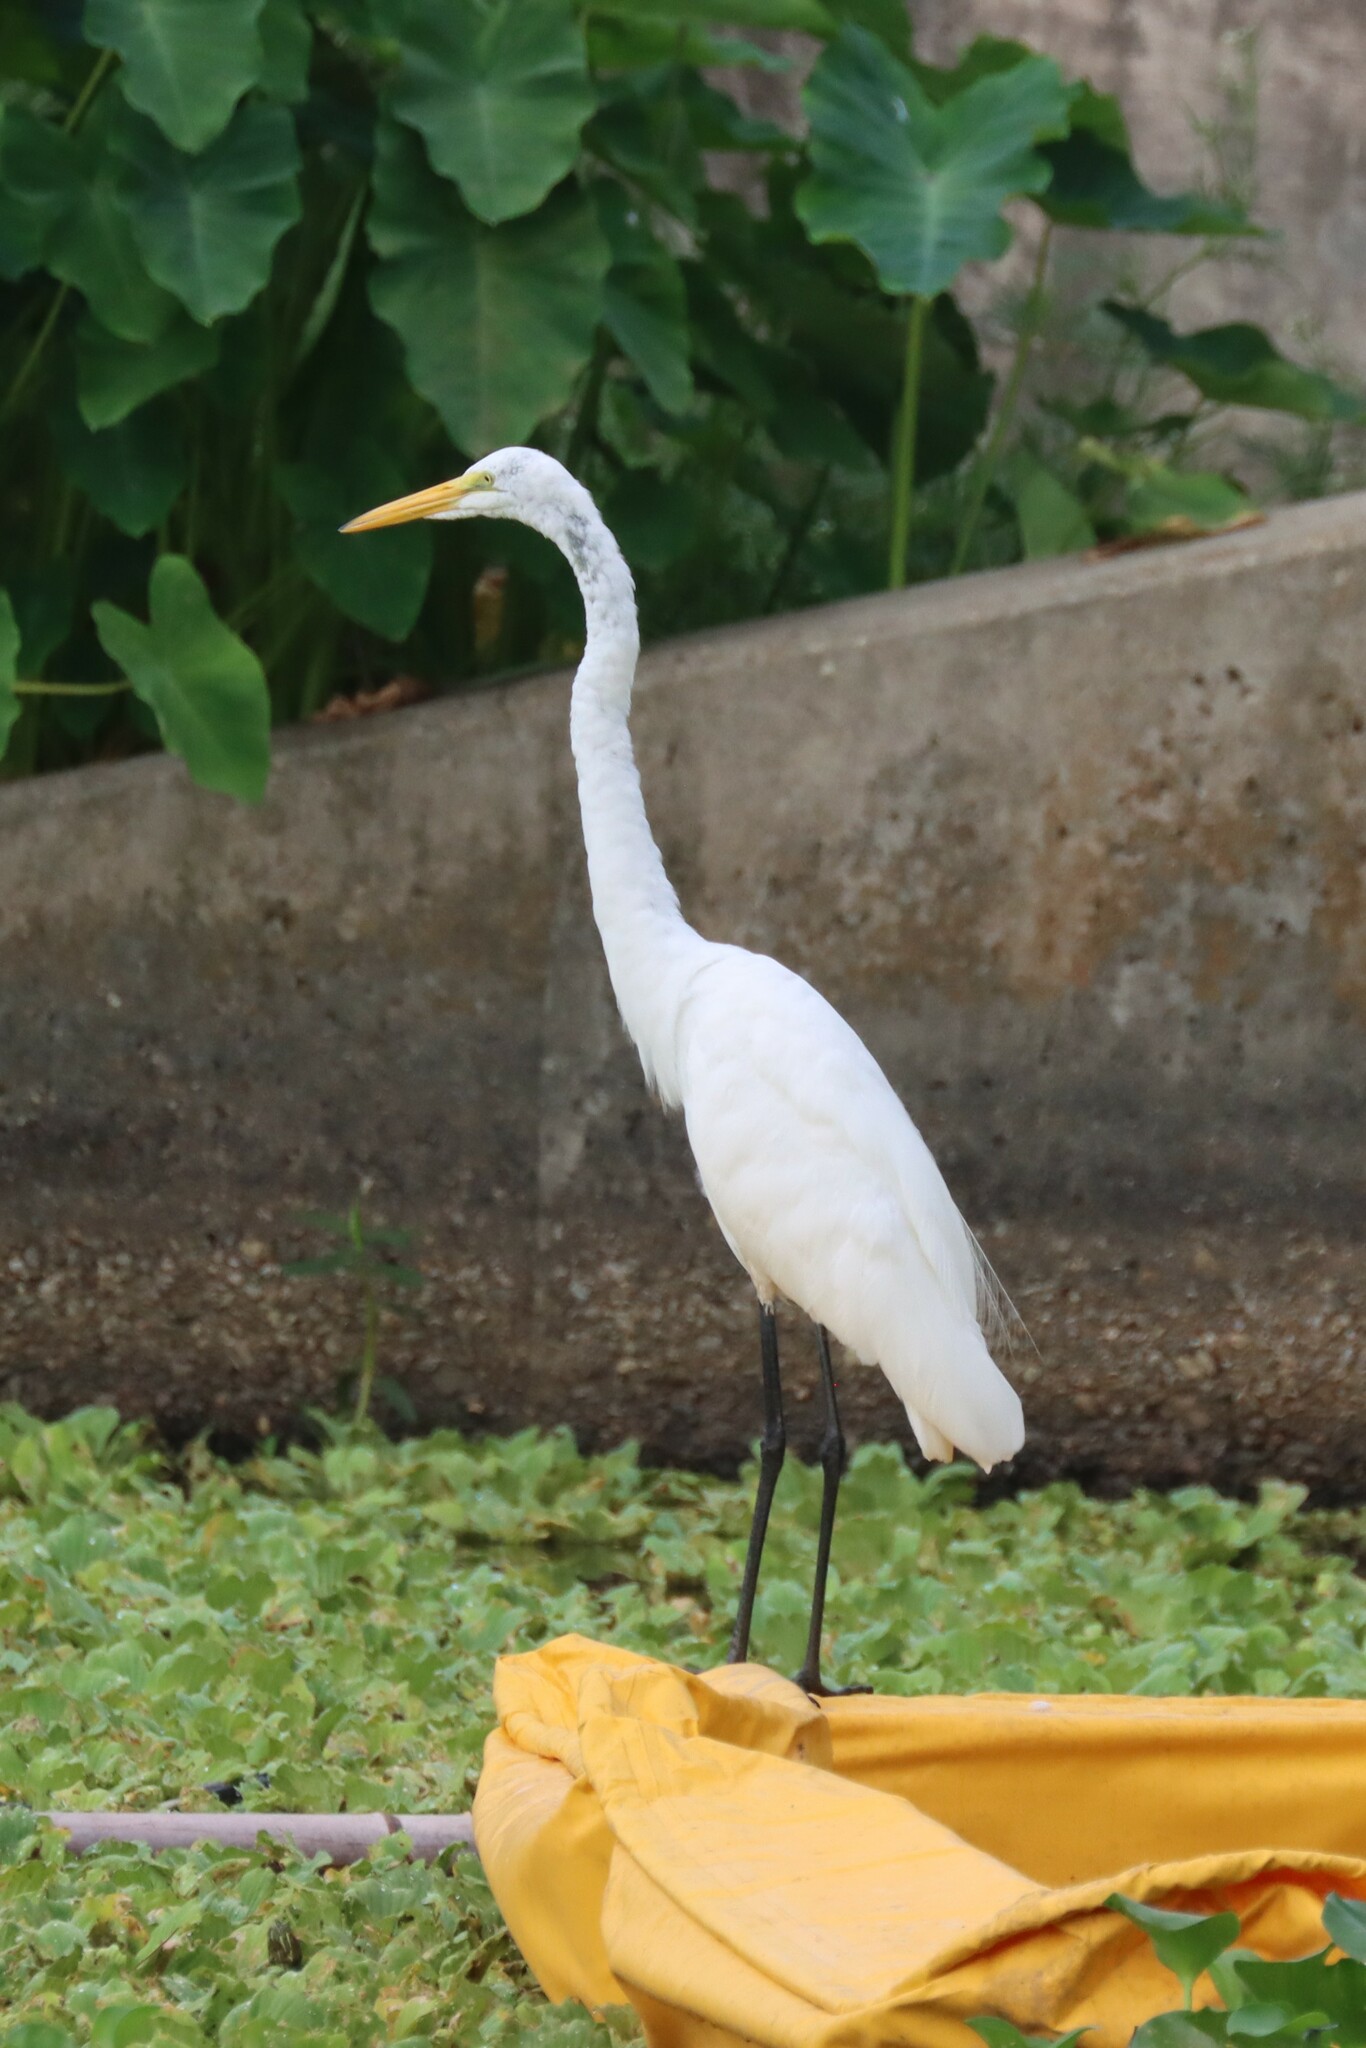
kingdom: Animalia
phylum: Chordata
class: Aves
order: Pelecaniformes
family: Ardeidae
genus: Ardea
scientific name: Ardea alba
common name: Great egret
